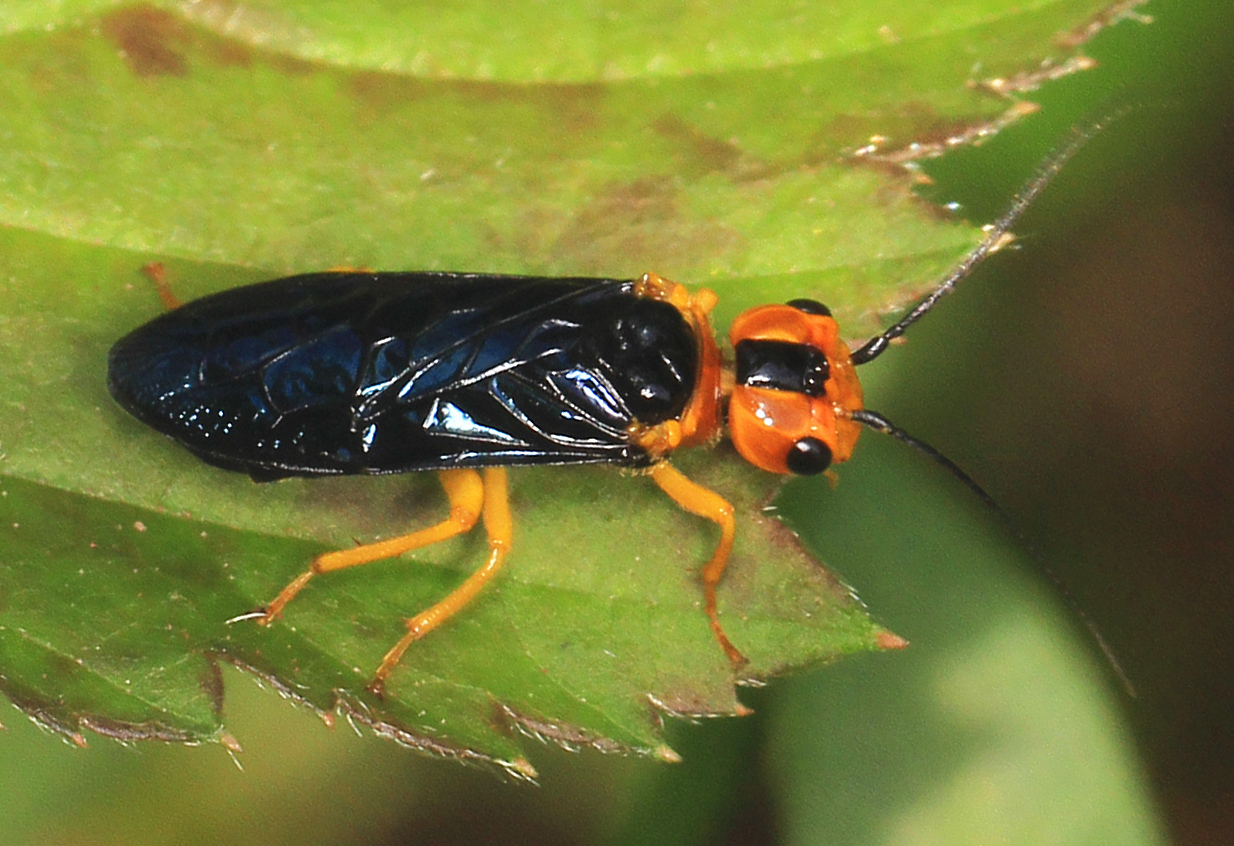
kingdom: Animalia
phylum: Arthropoda
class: Insecta
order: Hymenoptera
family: Pamphiliidae
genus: Onycholyda
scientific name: Onycholyda amplecta
